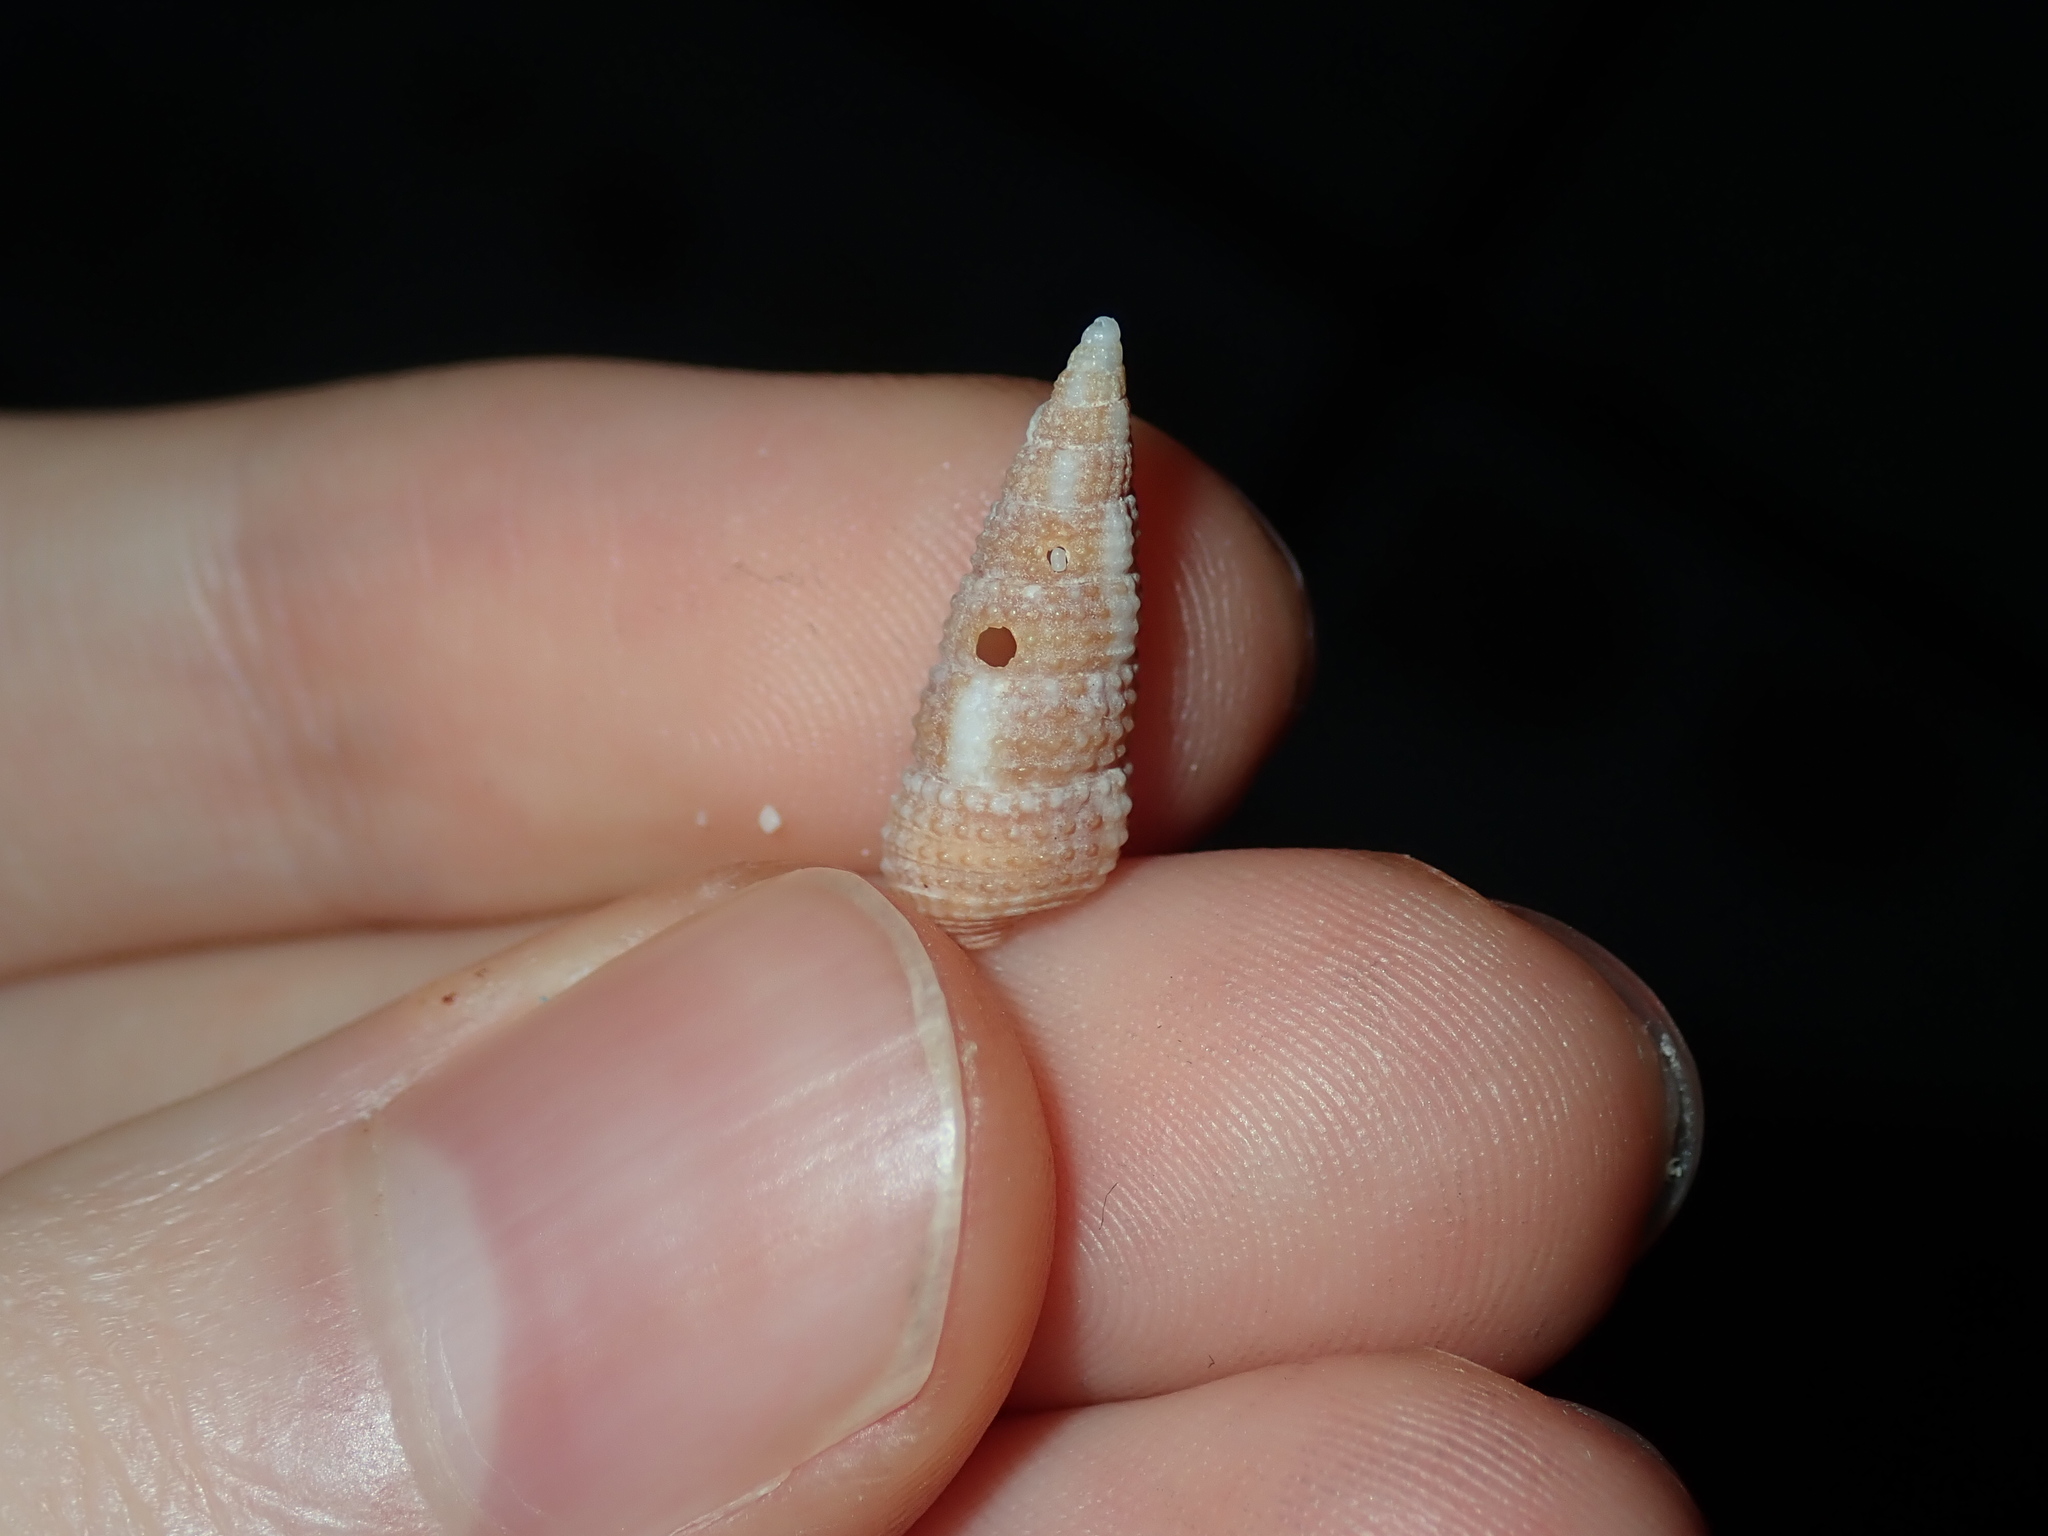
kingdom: Animalia
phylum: Mollusca
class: Gastropoda
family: Cerithiidae
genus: Cacozeliana
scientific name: Cacozeliana granarium
